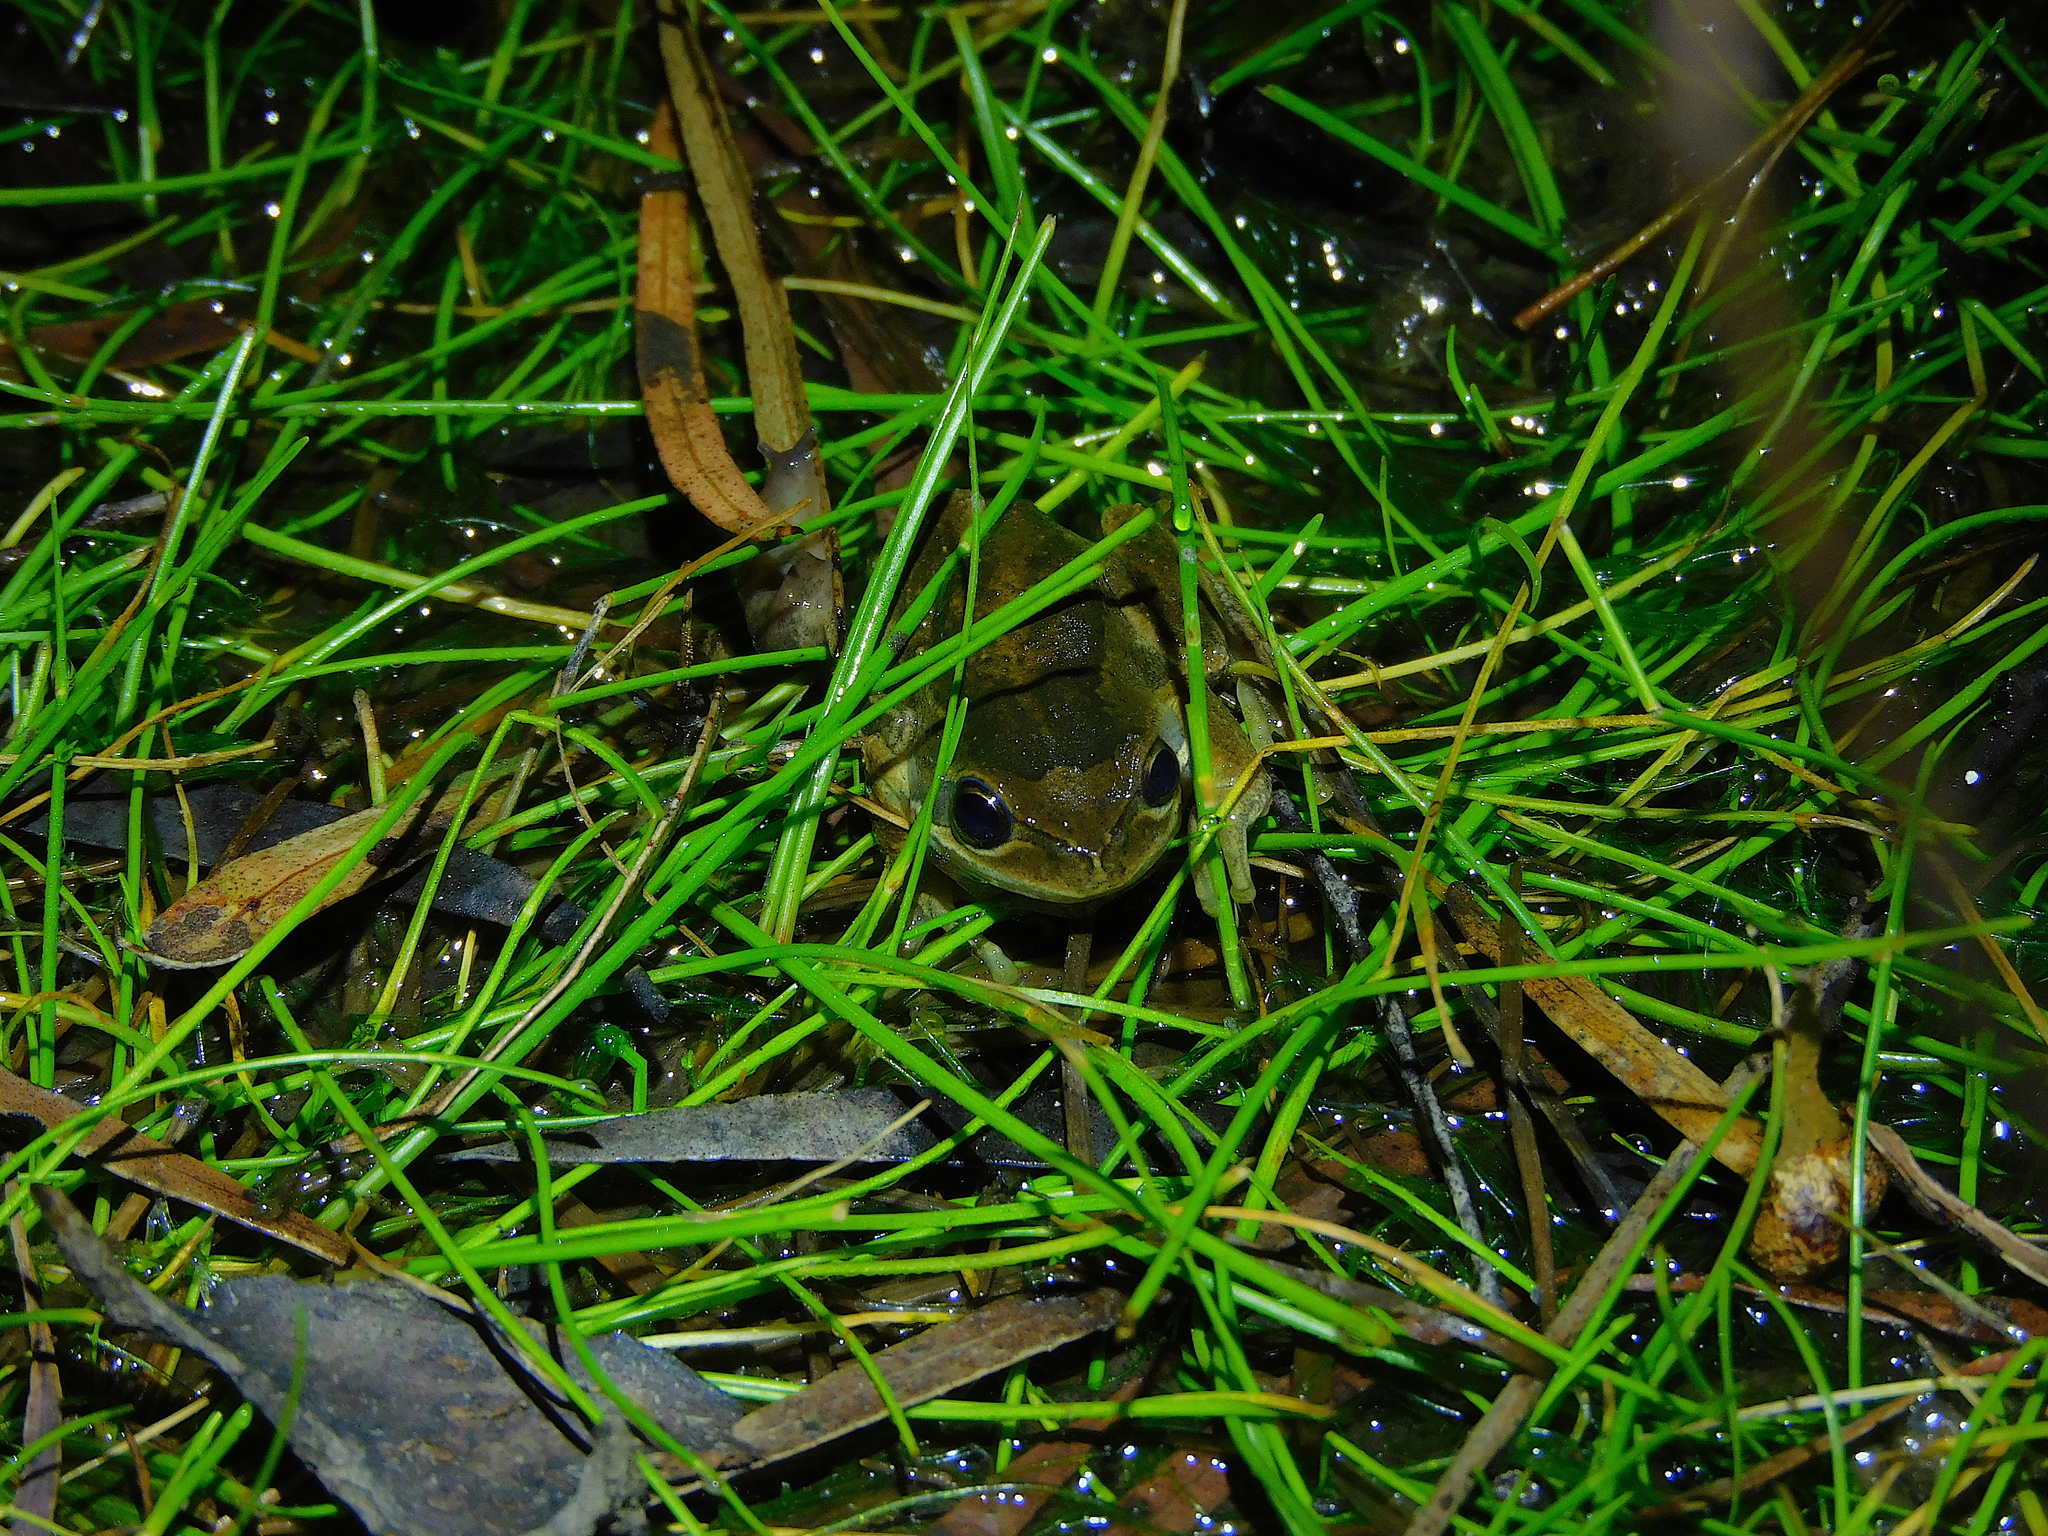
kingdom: Animalia
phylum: Chordata
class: Amphibia
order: Anura
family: Pelodryadidae
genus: Litoria
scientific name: Litoria ewingii
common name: Southern brown tree frog
